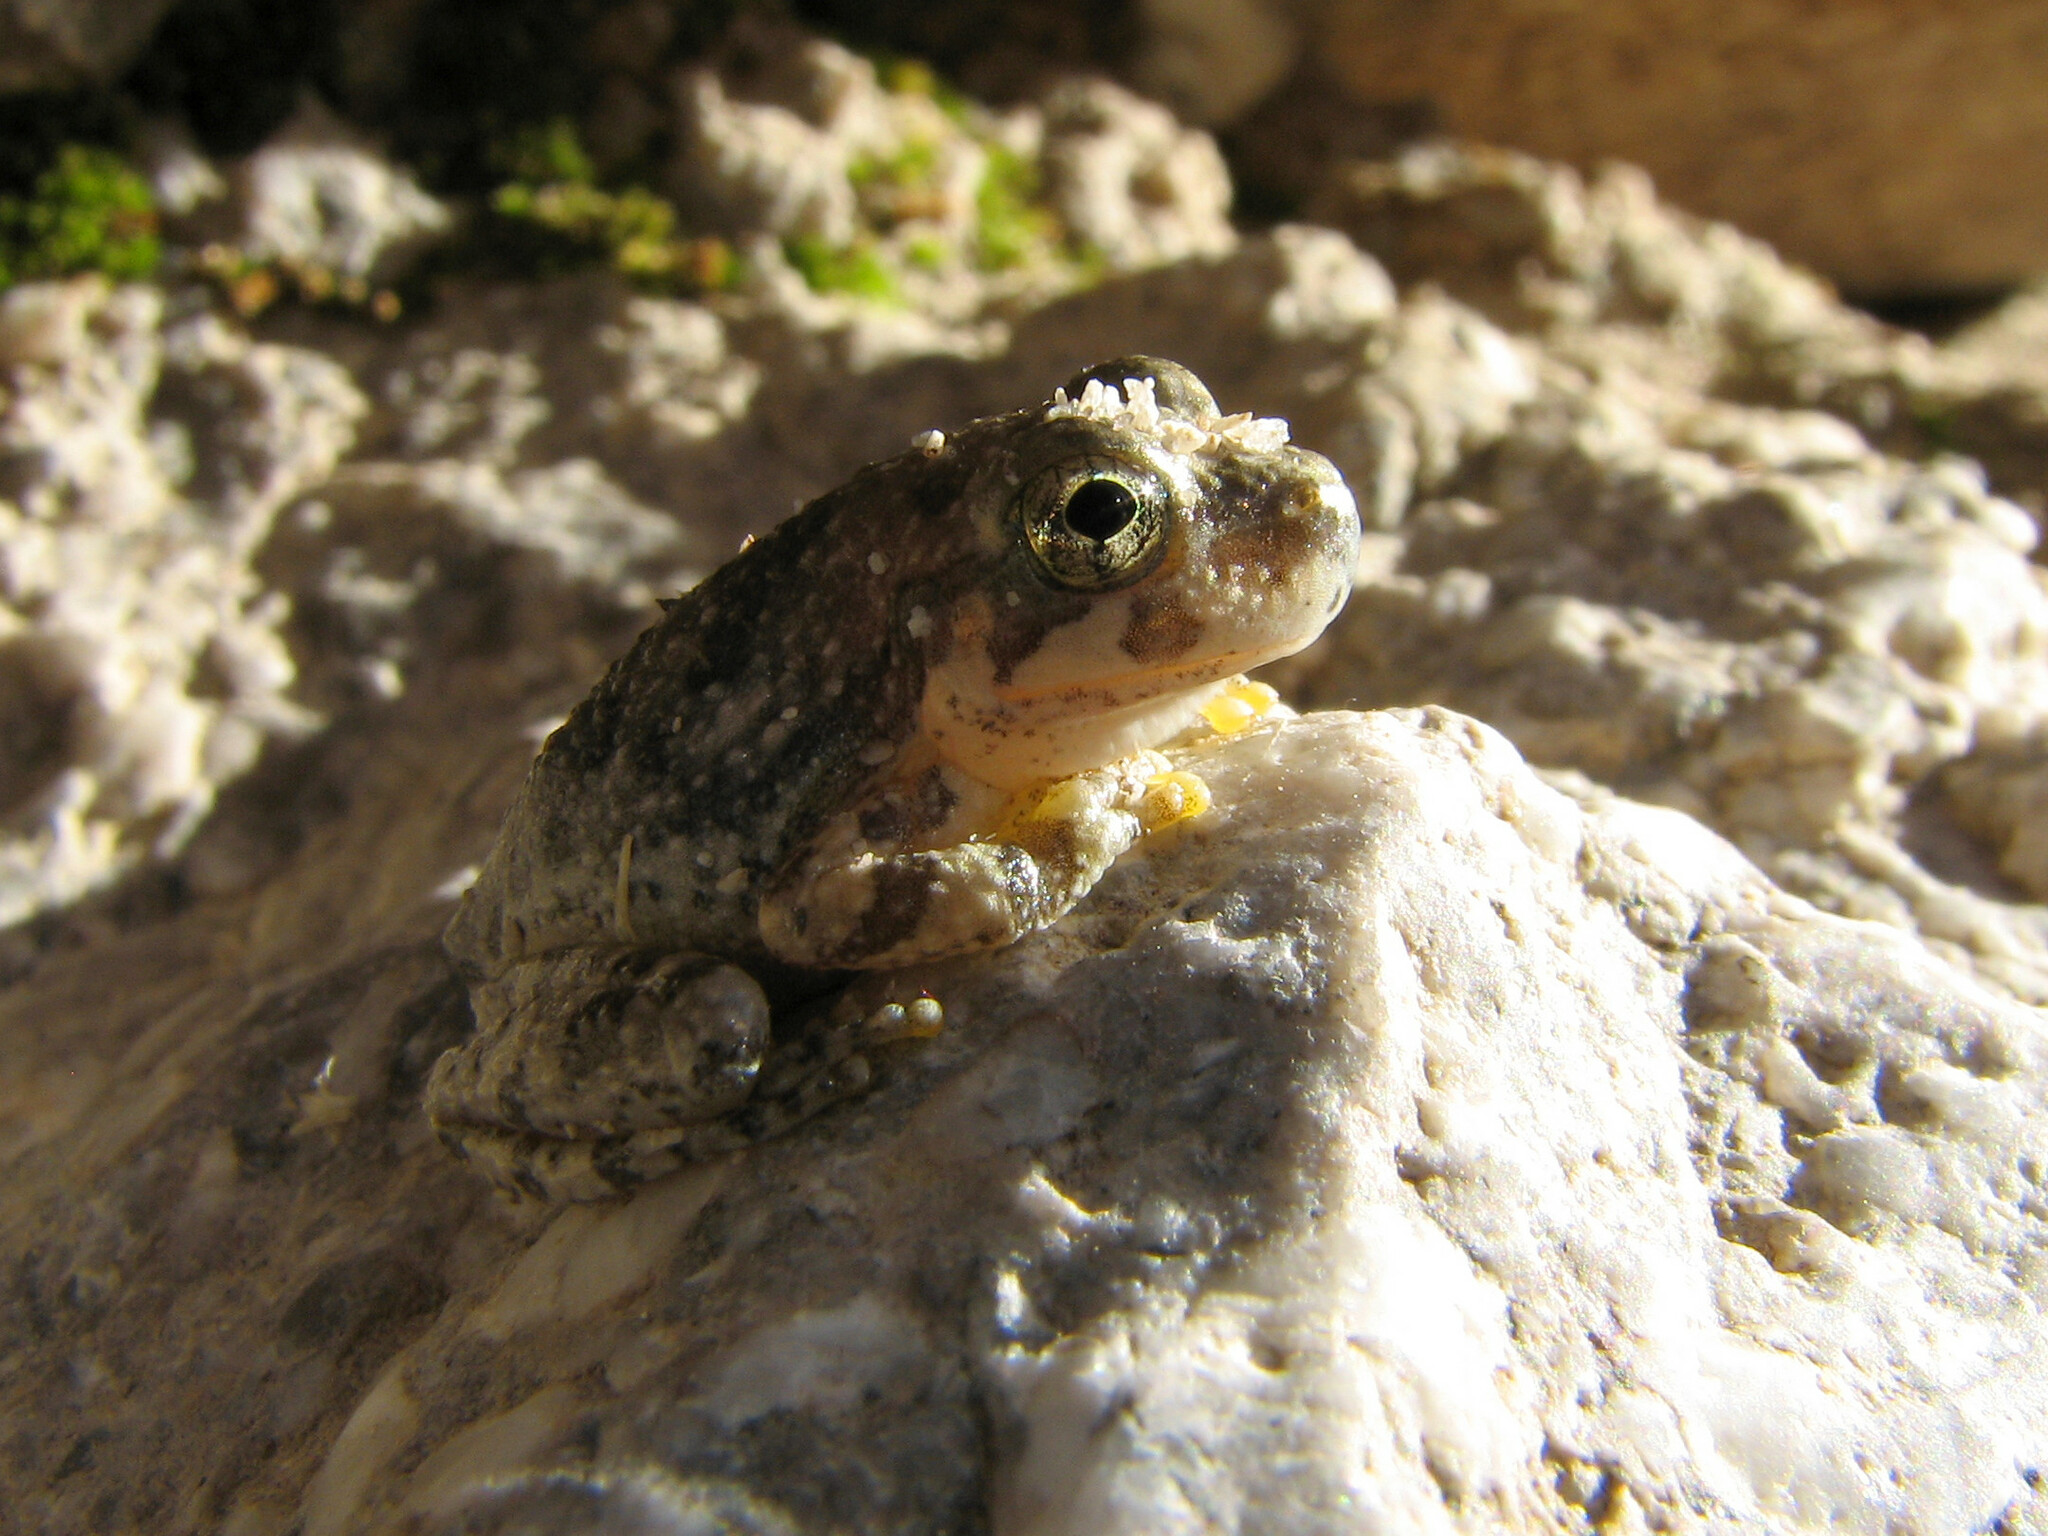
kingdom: Animalia
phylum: Chordata
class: Amphibia
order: Anura
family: Hylidae
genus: Dryophytes
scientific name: Dryophytes arenicolor
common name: Canyon treefrog
